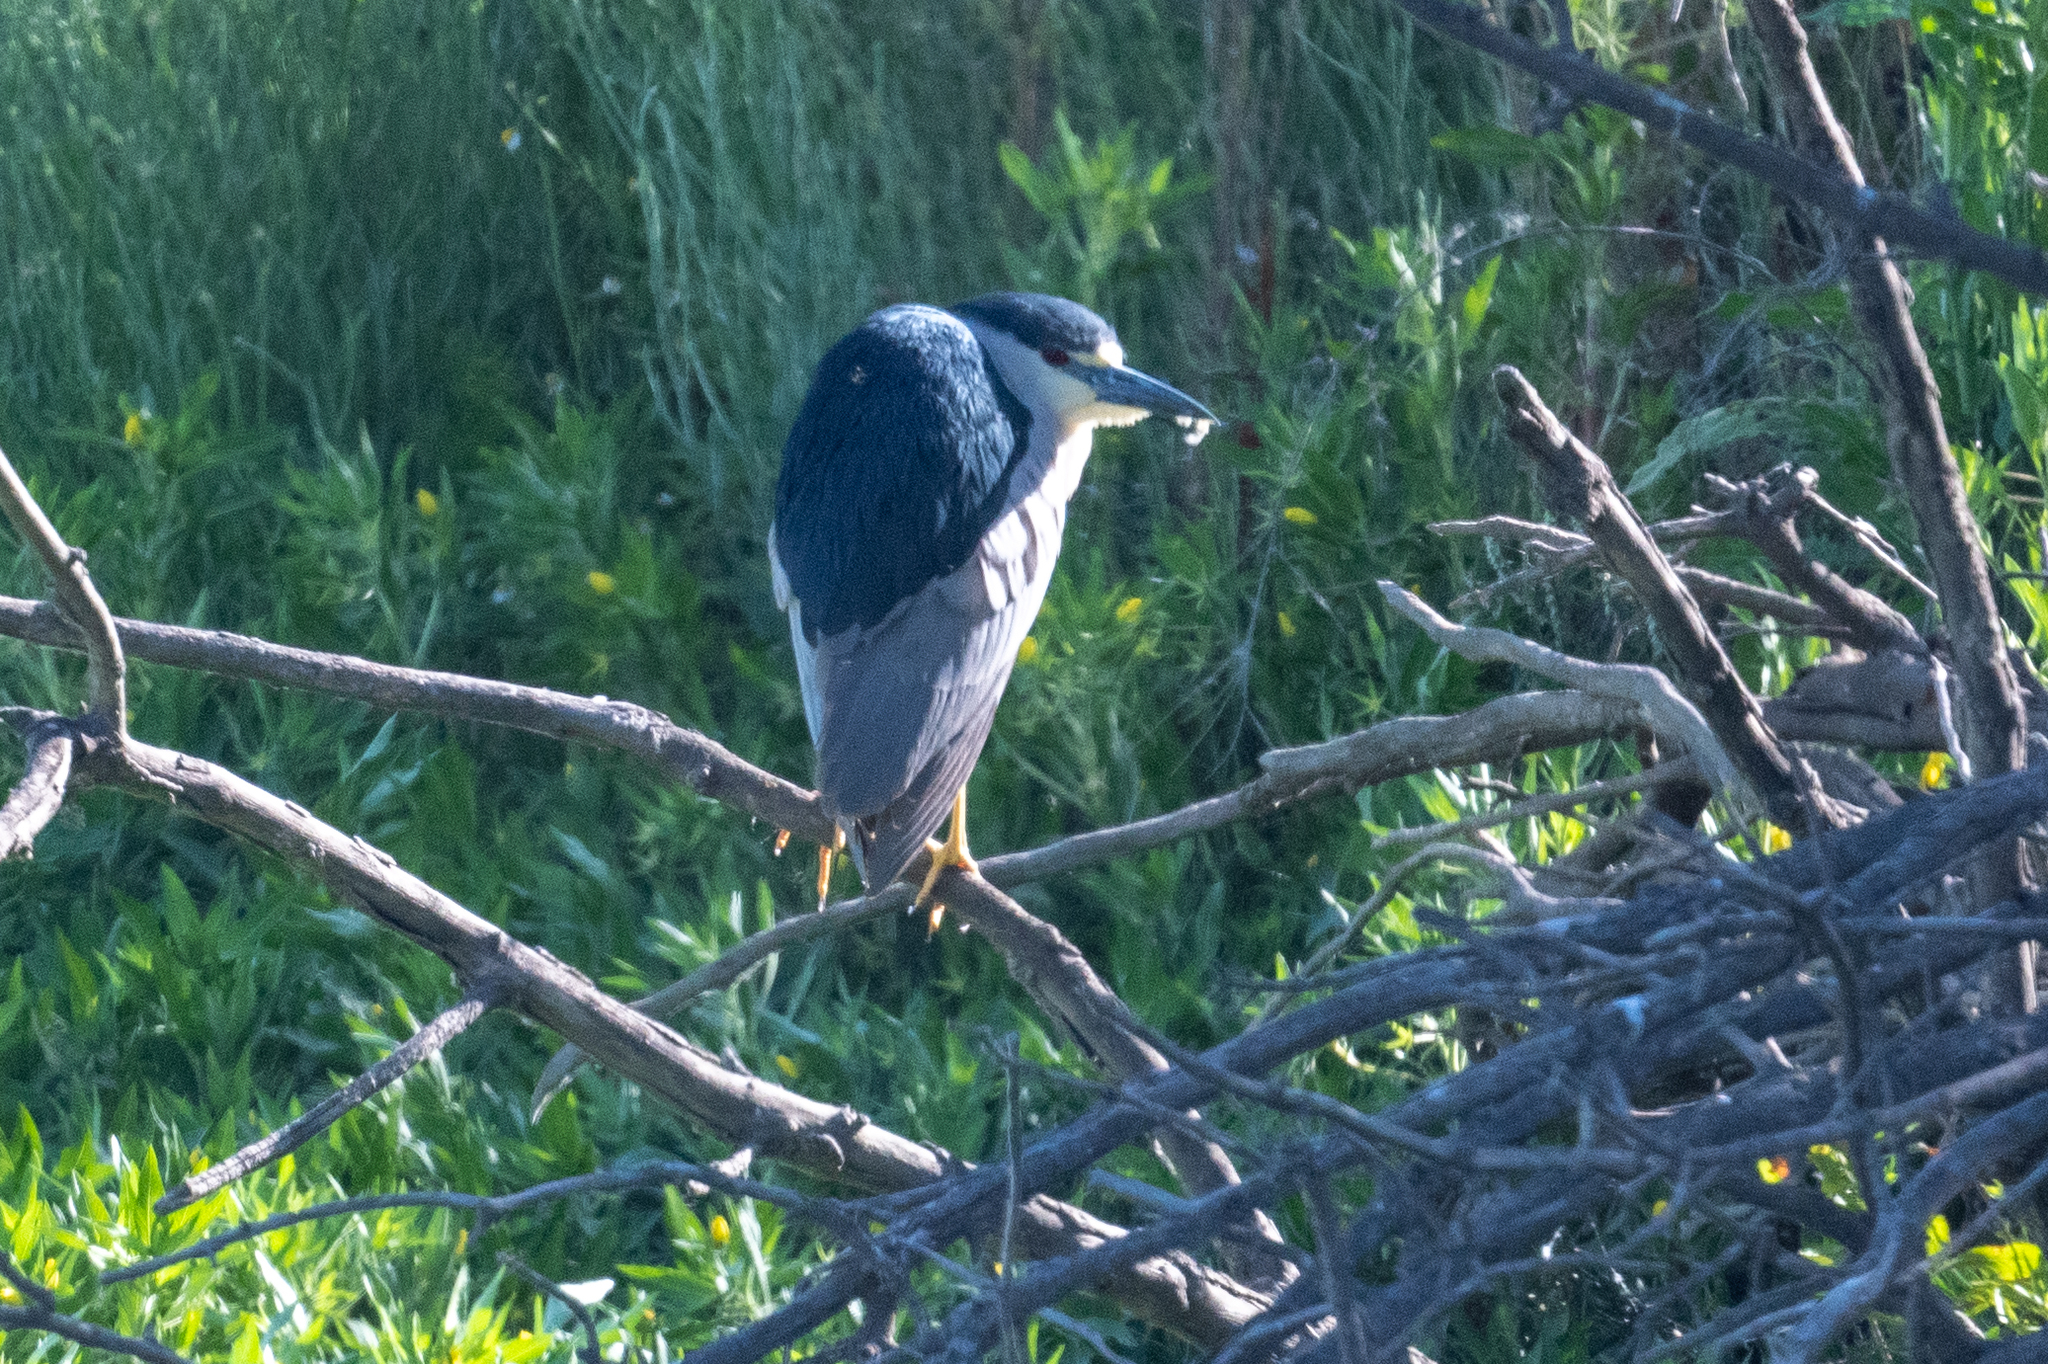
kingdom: Animalia
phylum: Chordata
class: Aves
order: Pelecaniformes
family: Ardeidae
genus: Nycticorax
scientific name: Nycticorax nycticorax
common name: Black-crowned night heron
